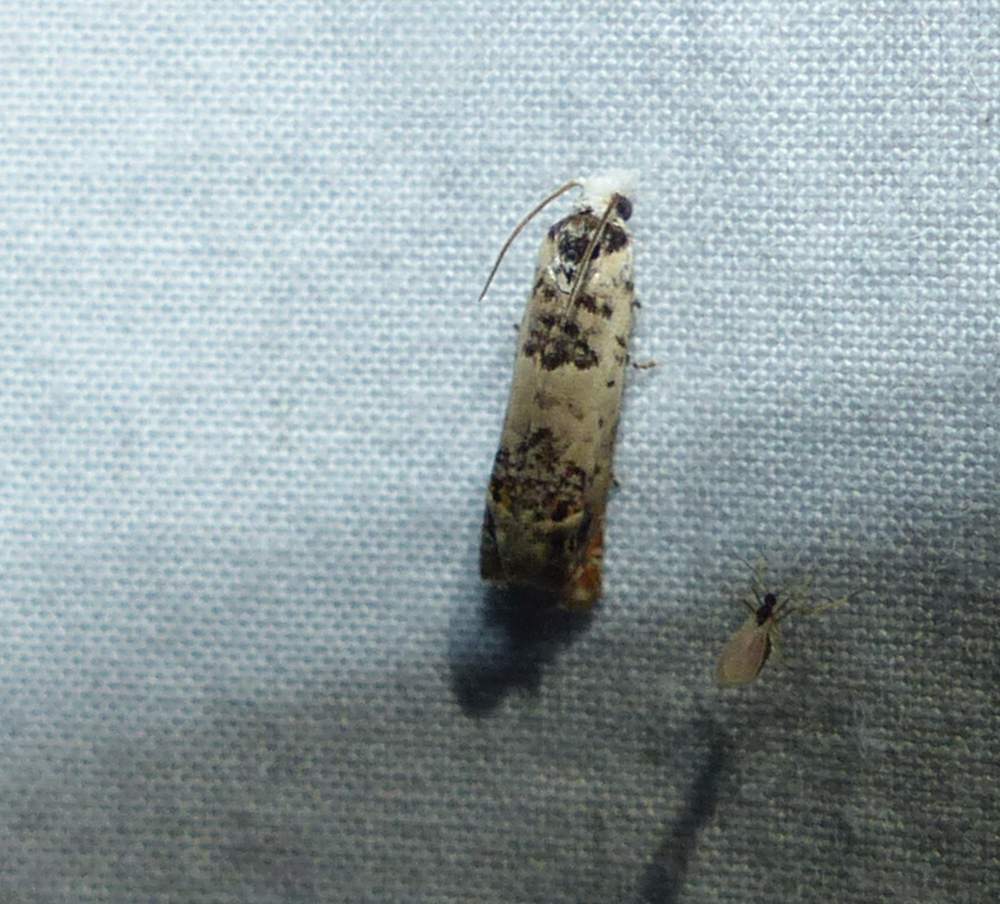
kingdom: Animalia
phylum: Arthropoda
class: Insecta
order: Lepidoptera
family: Tortricidae
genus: Eucosma
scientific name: Eucosma ornatula
